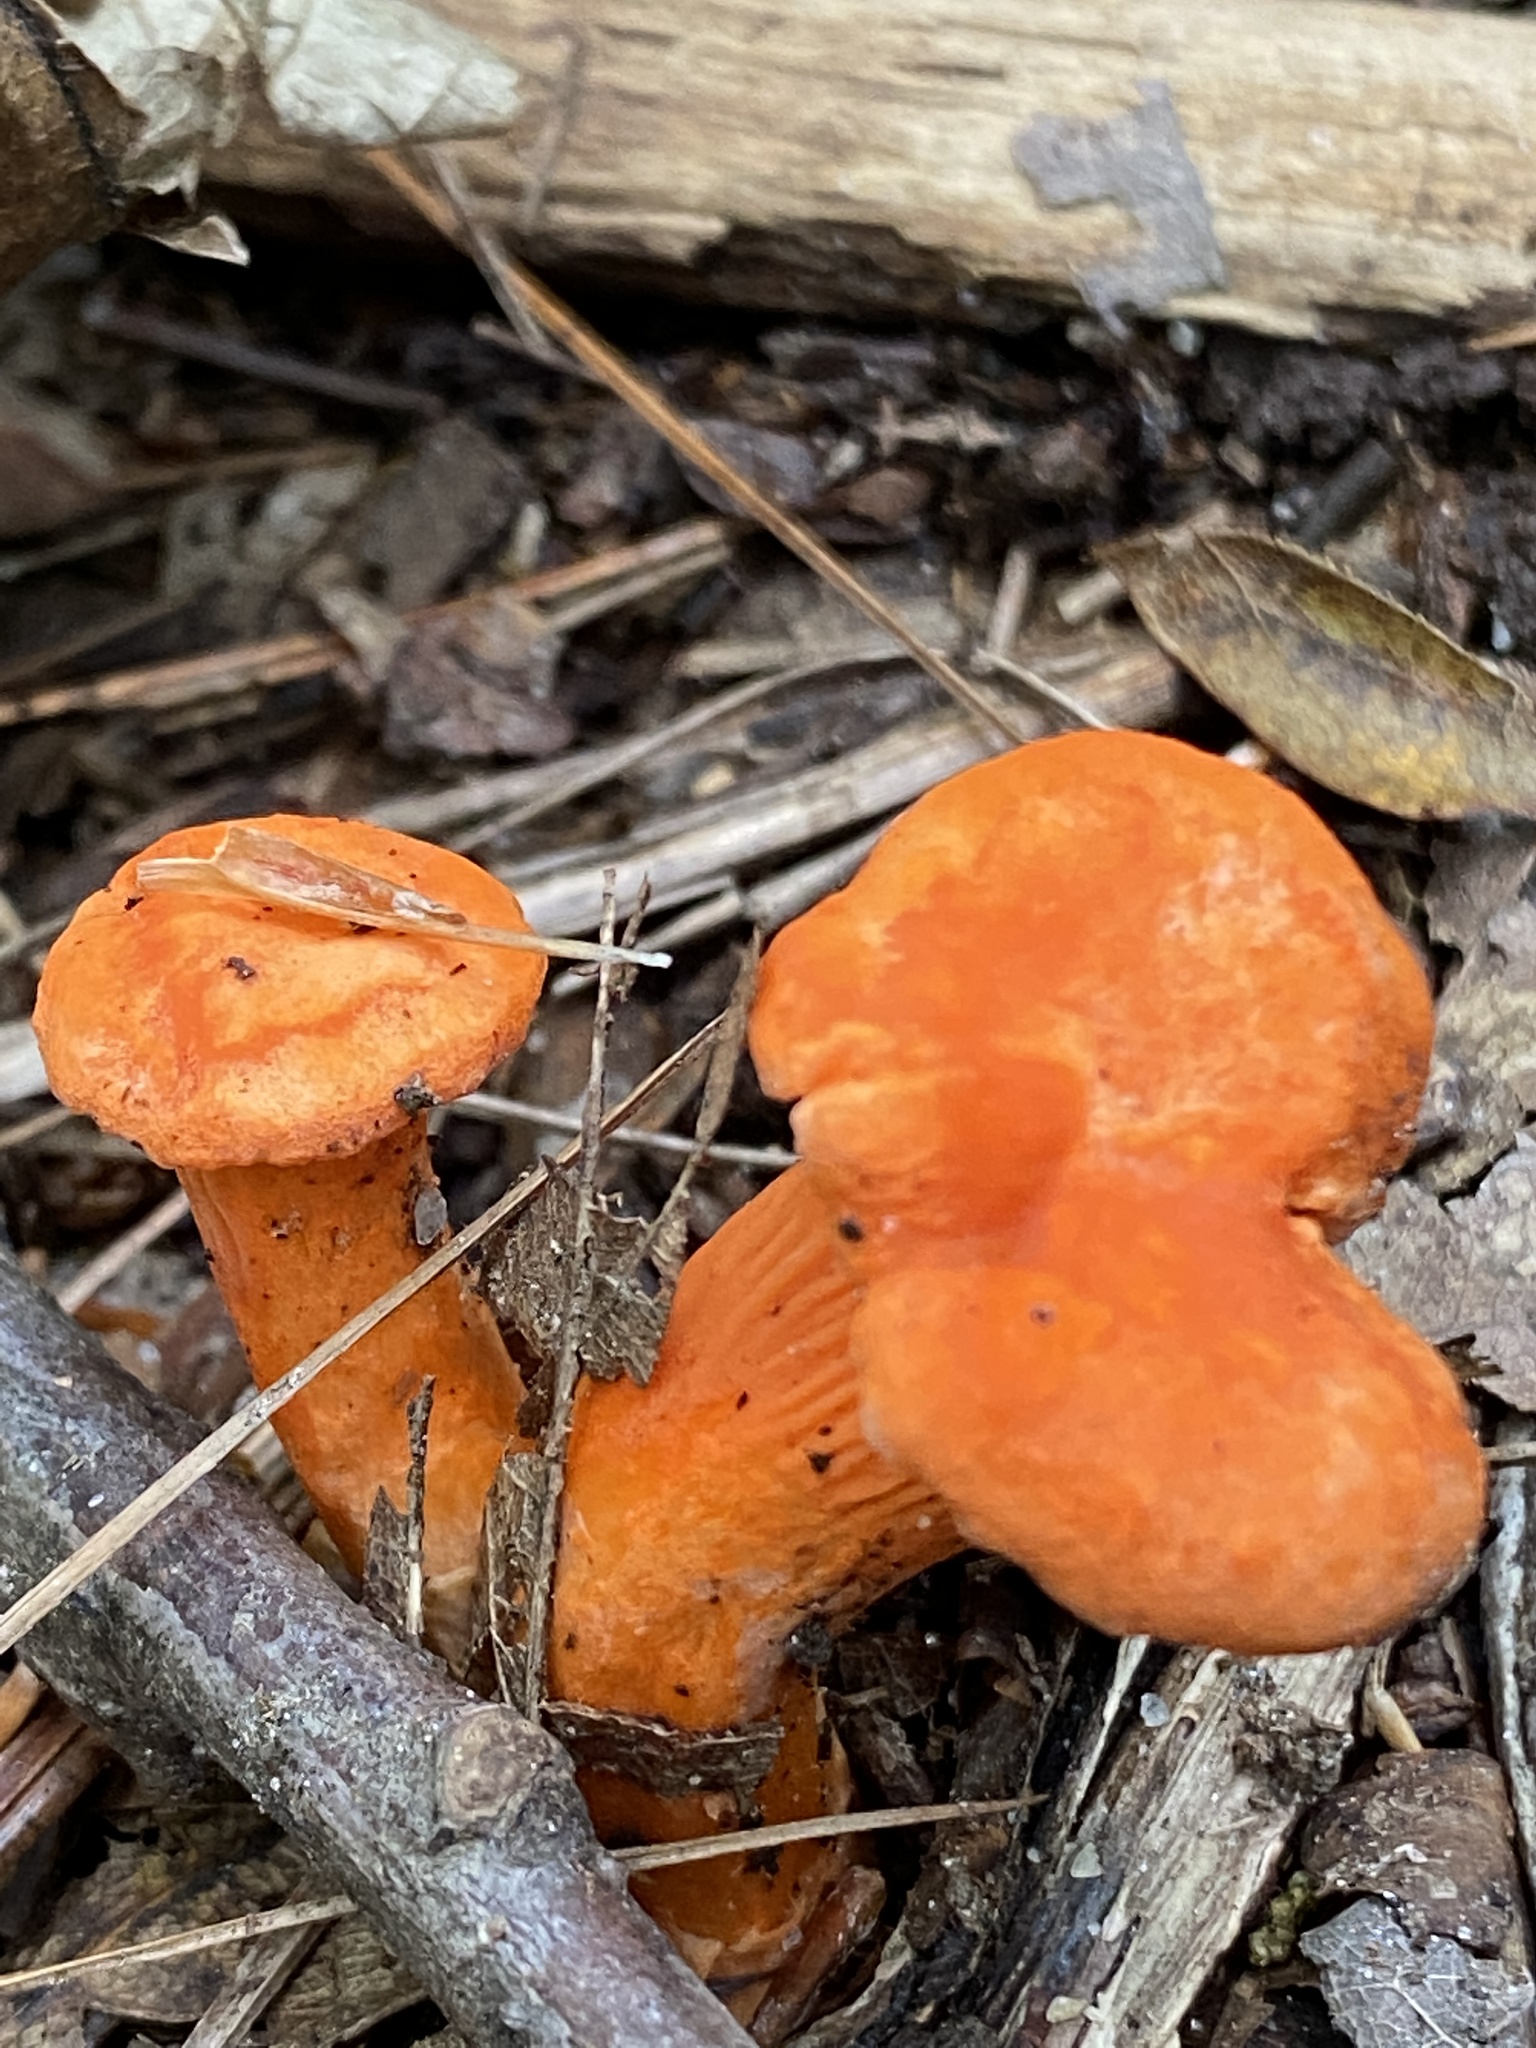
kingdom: Fungi
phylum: Basidiomycota
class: Agaricomycetes
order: Cantharellales
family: Hydnaceae
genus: Cantharellus
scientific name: Cantharellus cinnabarinus
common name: Cinnabar chanterelle
